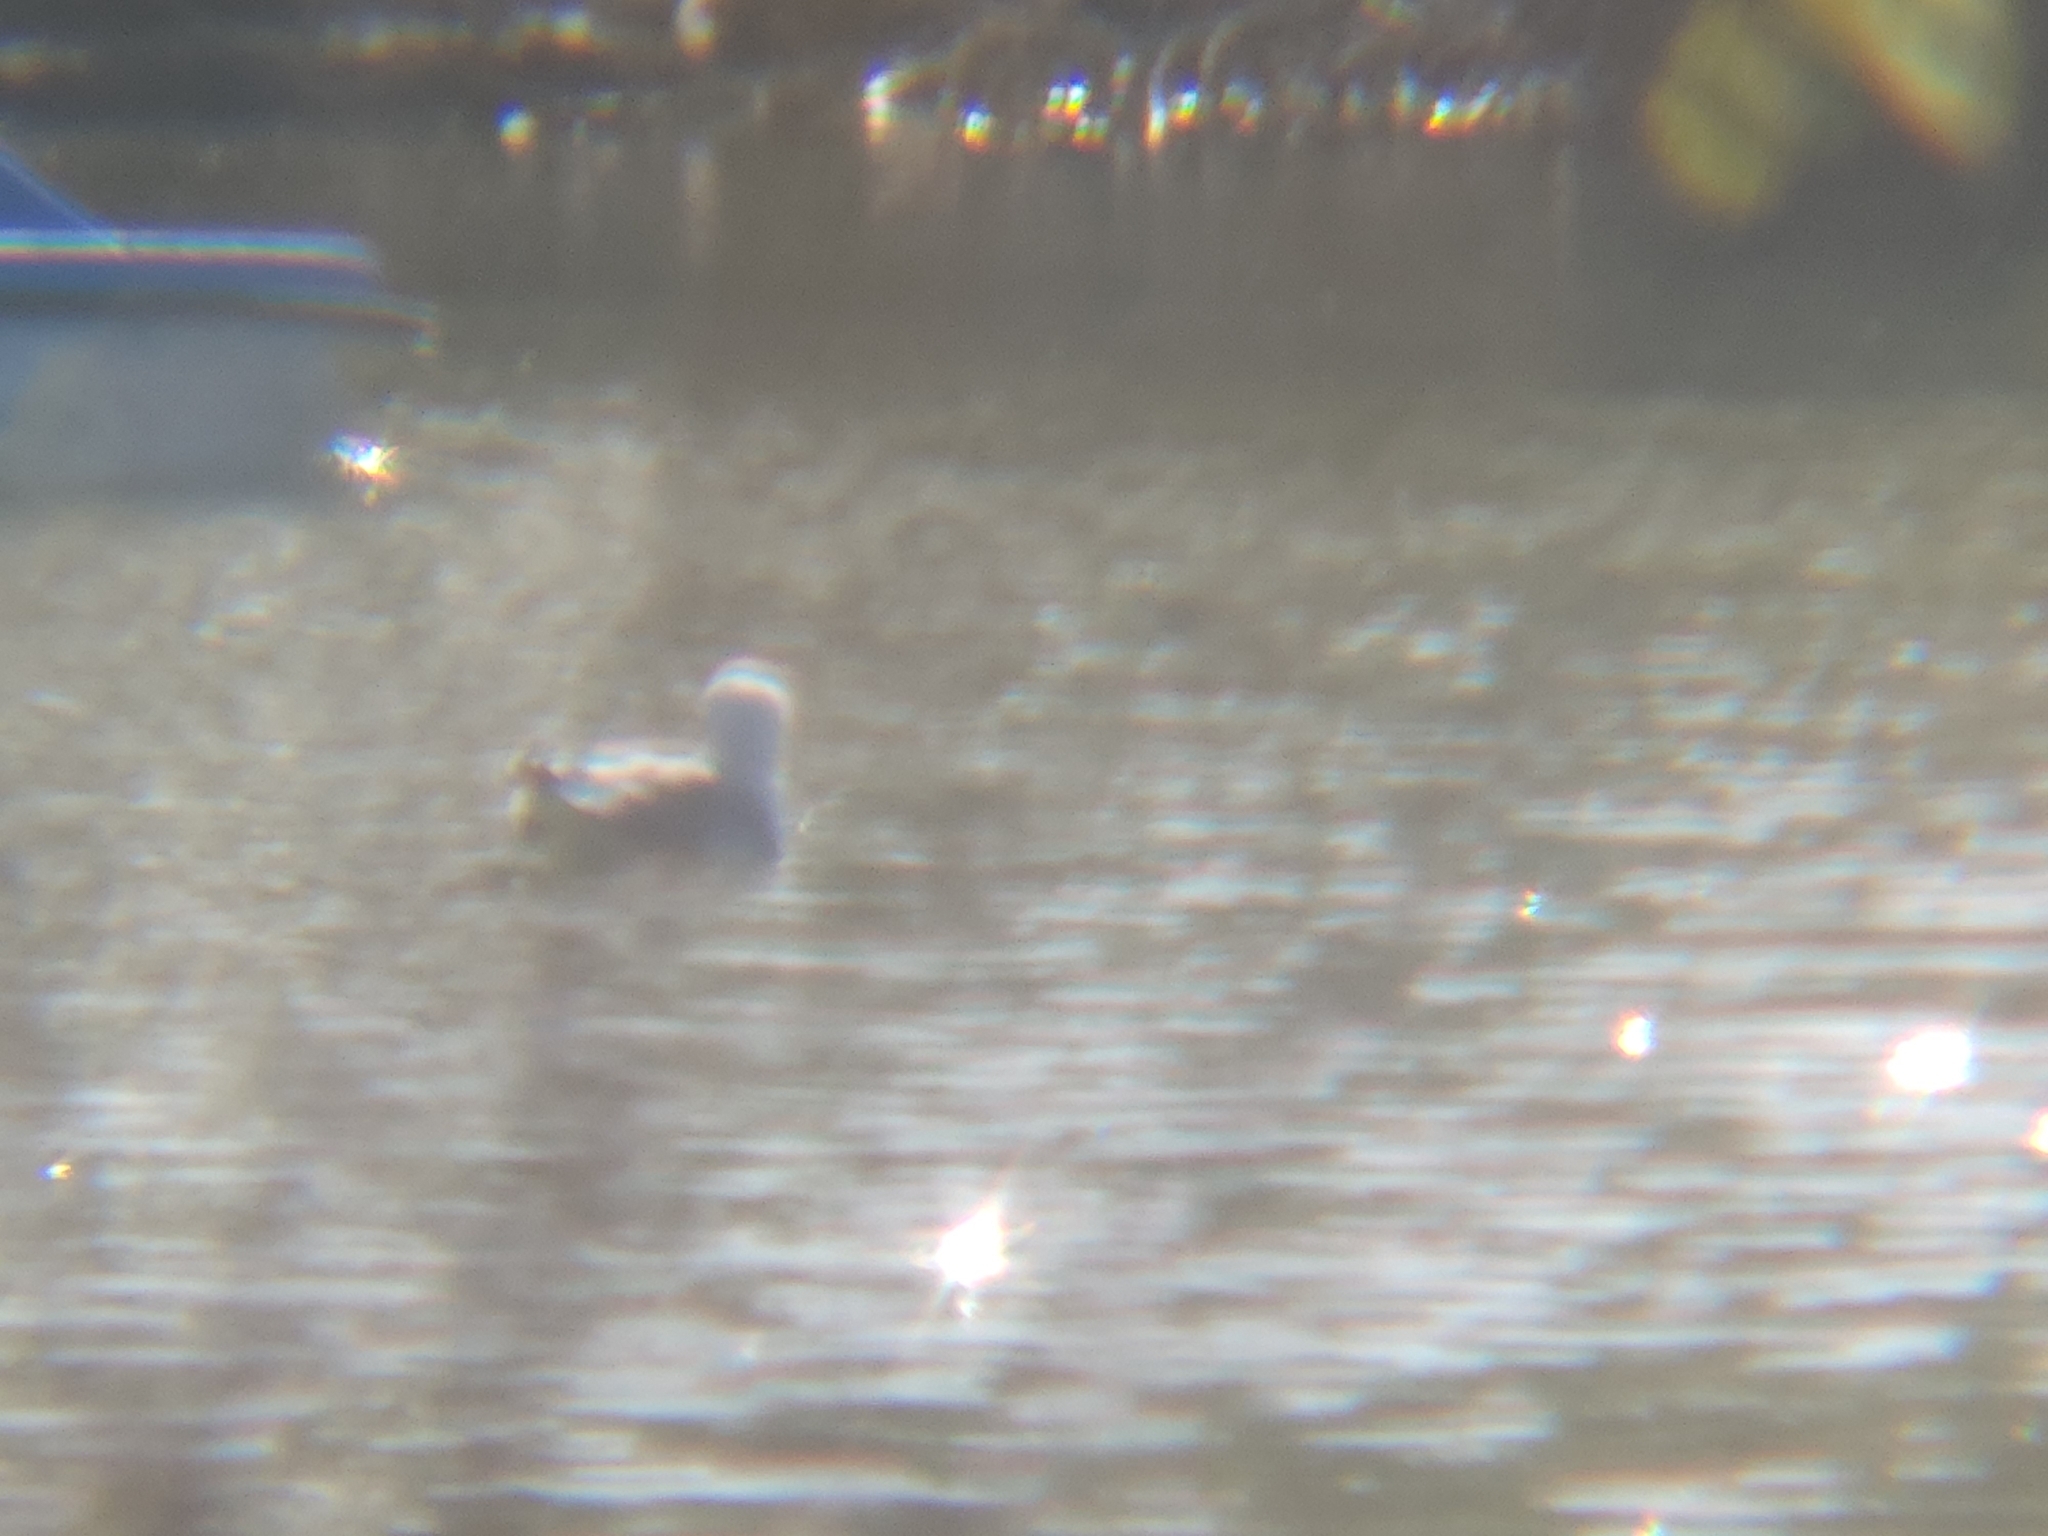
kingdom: Animalia
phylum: Chordata
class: Aves
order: Charadriiformes
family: Laridae
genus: Larus
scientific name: Larus occidentalis
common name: Western gull
